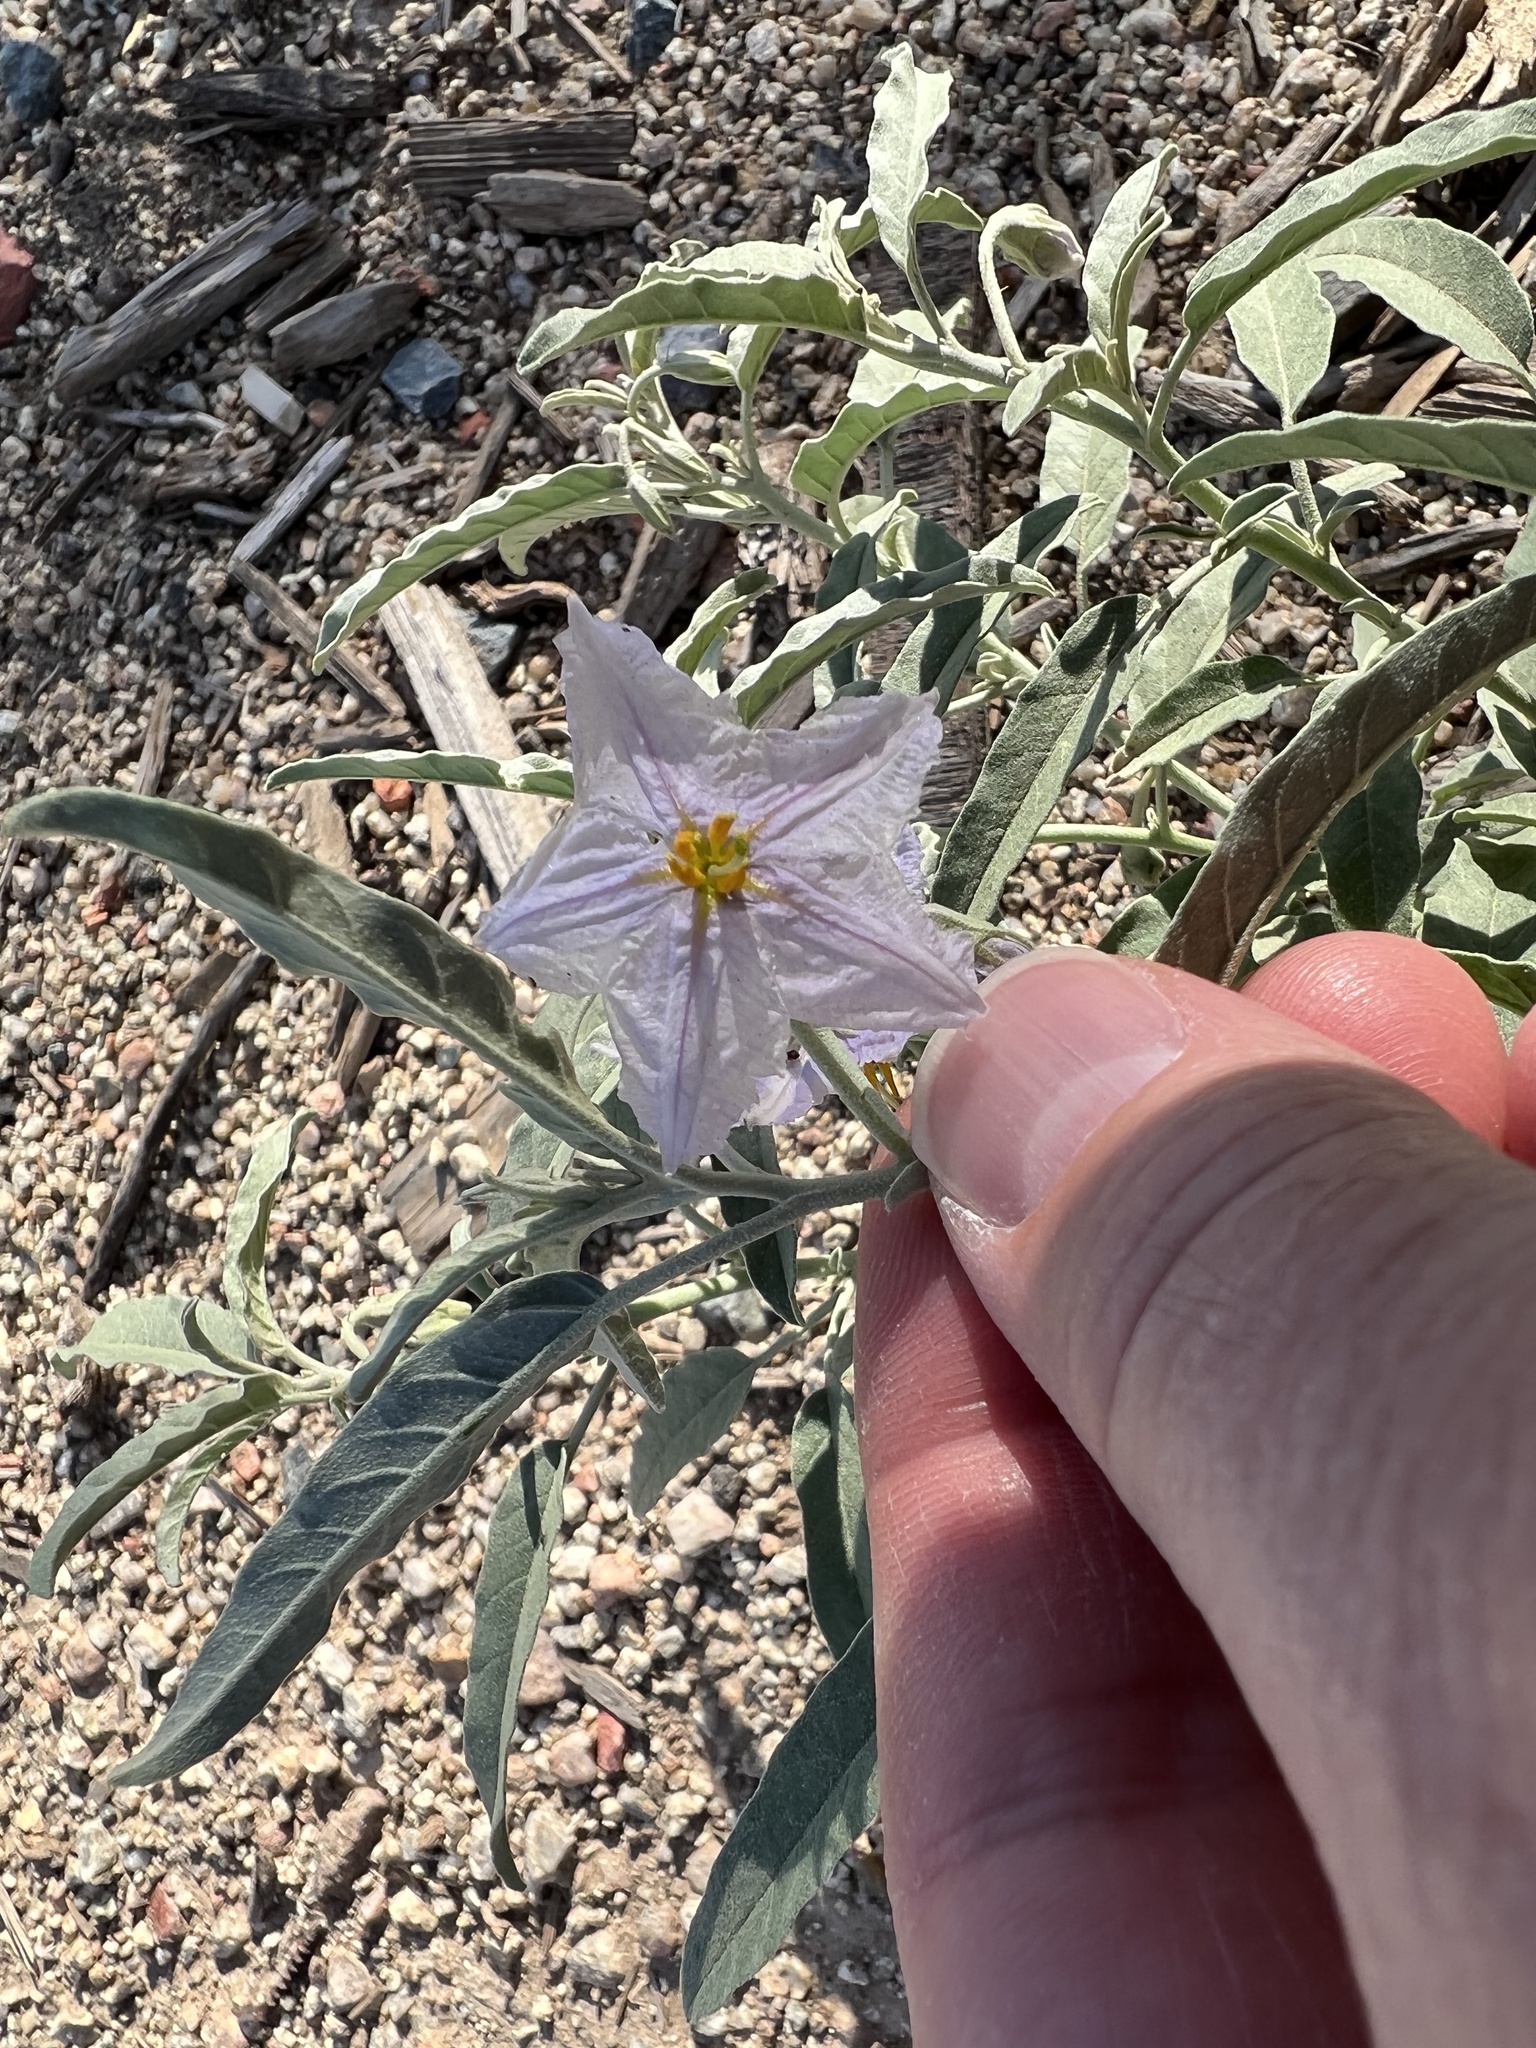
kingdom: Plantae
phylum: Tracheophyta
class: Magnoliopsida
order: Solanales
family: Solanaceae
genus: Solanum
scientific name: Solanum elaeagnifolium
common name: Silverleaf nightshade
